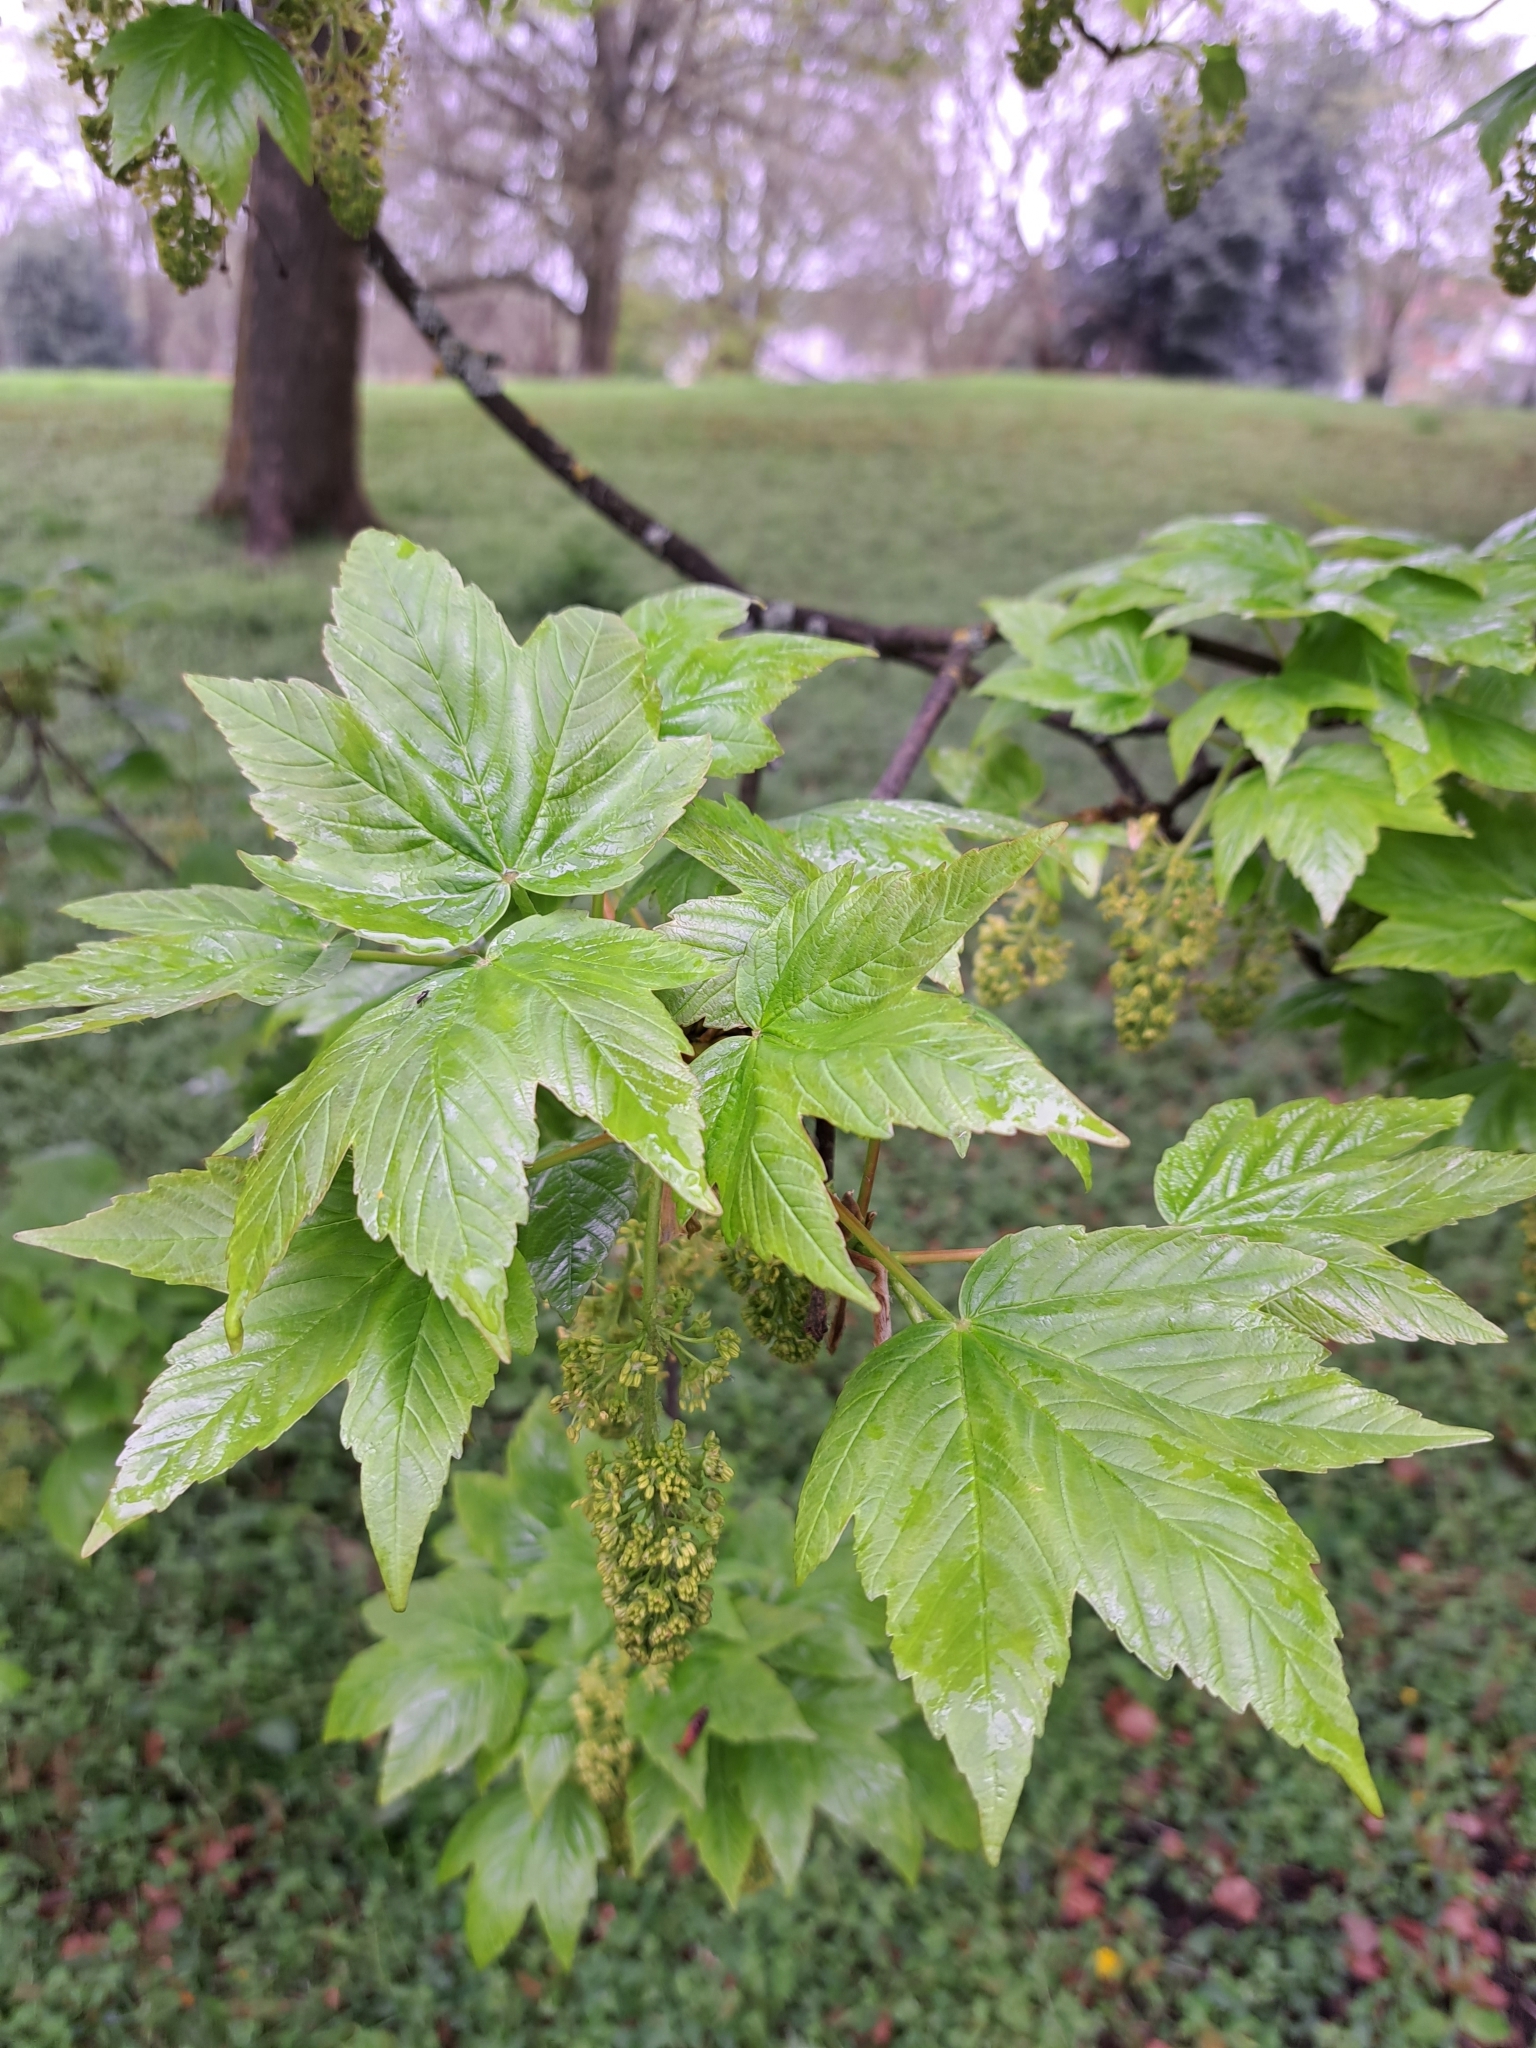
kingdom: Plantae
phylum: Tracheophyta
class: Magnoliopsida
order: Sapindales
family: Sapindaceae
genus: Acer
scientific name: Acer pseudoplatanus
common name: Sycamore
